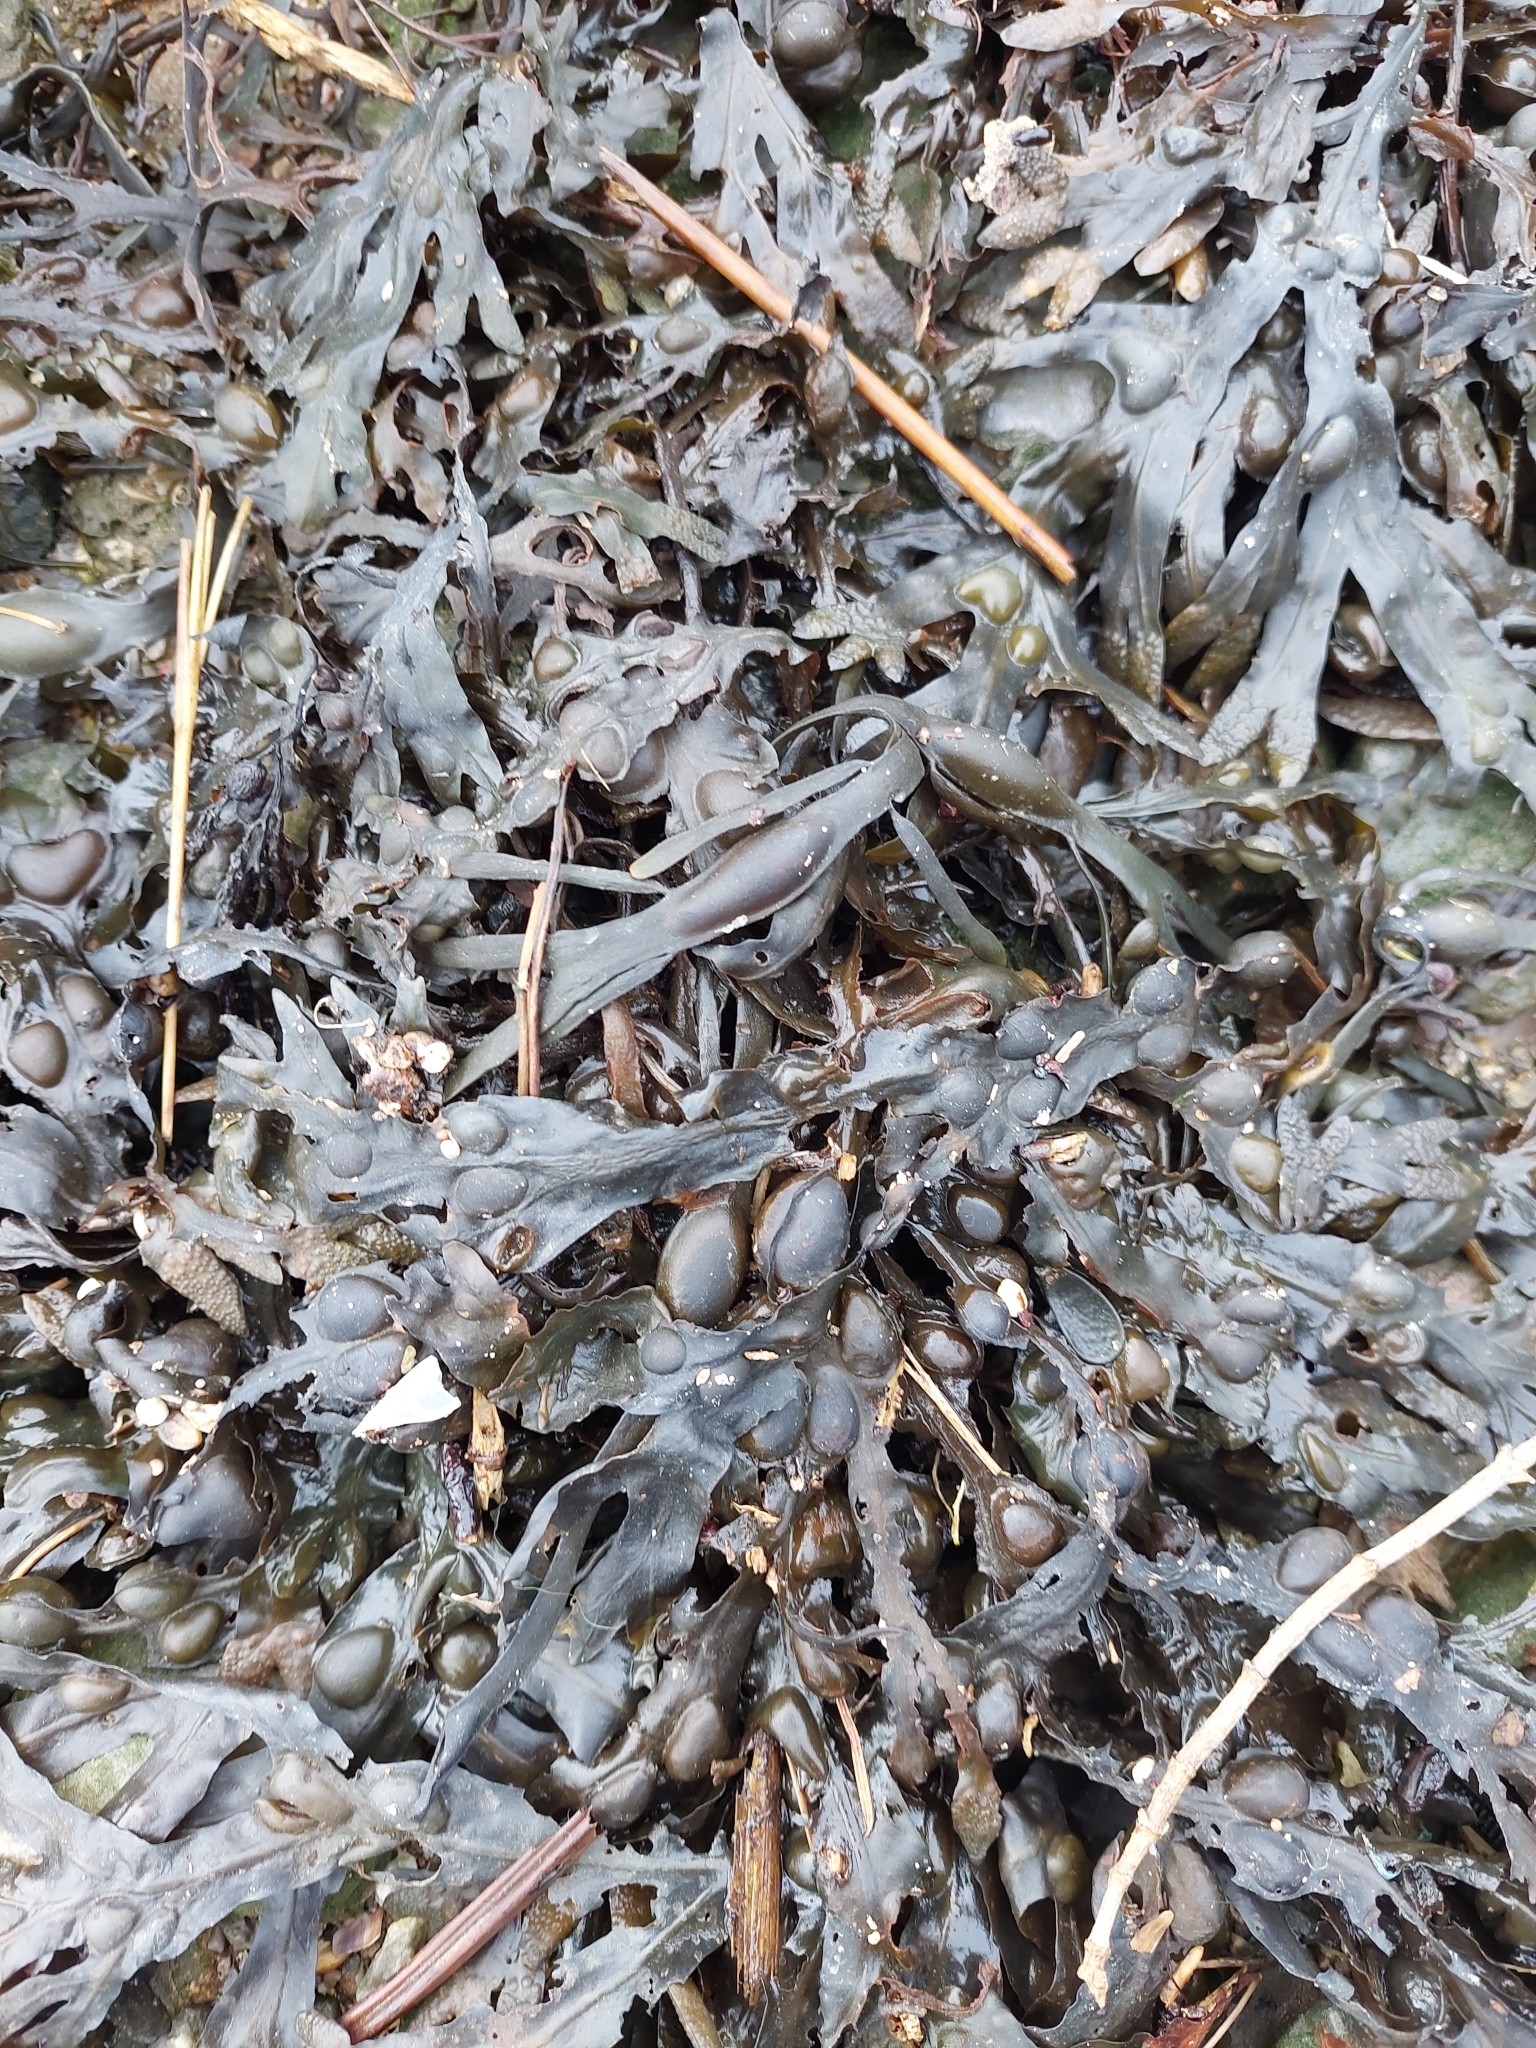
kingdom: Chromista
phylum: Ochrophyta
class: Phaeophyceae
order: Fucales
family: Fucaceae
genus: Fucus
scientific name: Fucus vesiculosus
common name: Bladder wrack
